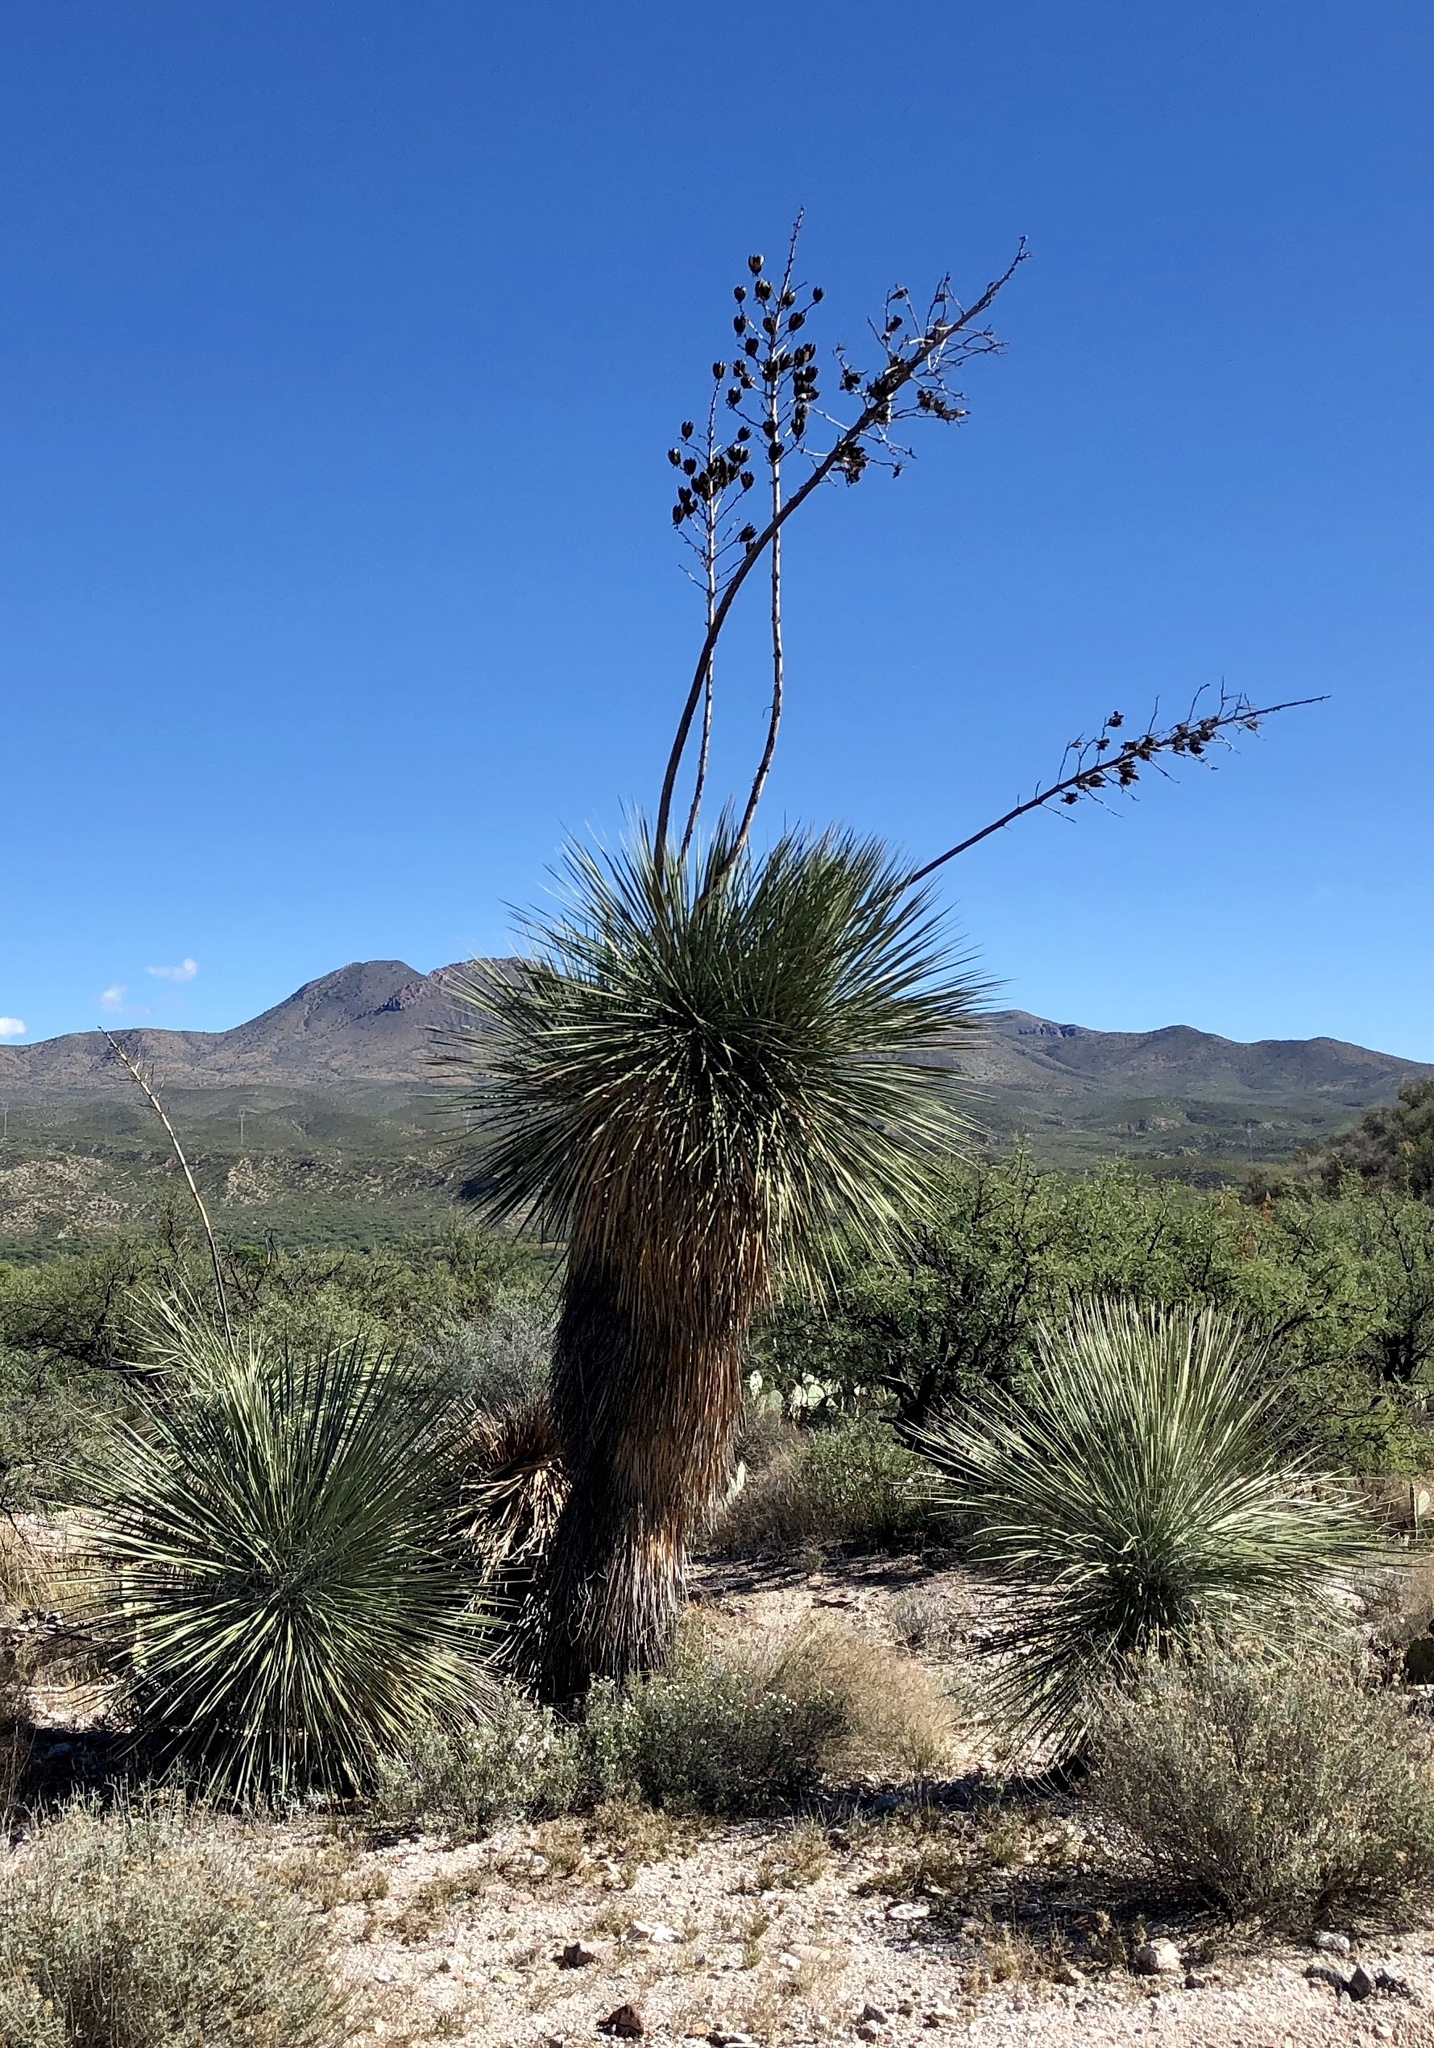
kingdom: Plantae
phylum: Tracheophyta
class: Liliopsida
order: Asparagales
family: Asparagaceae
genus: Yucca
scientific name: Yucca elata
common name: Palmella
